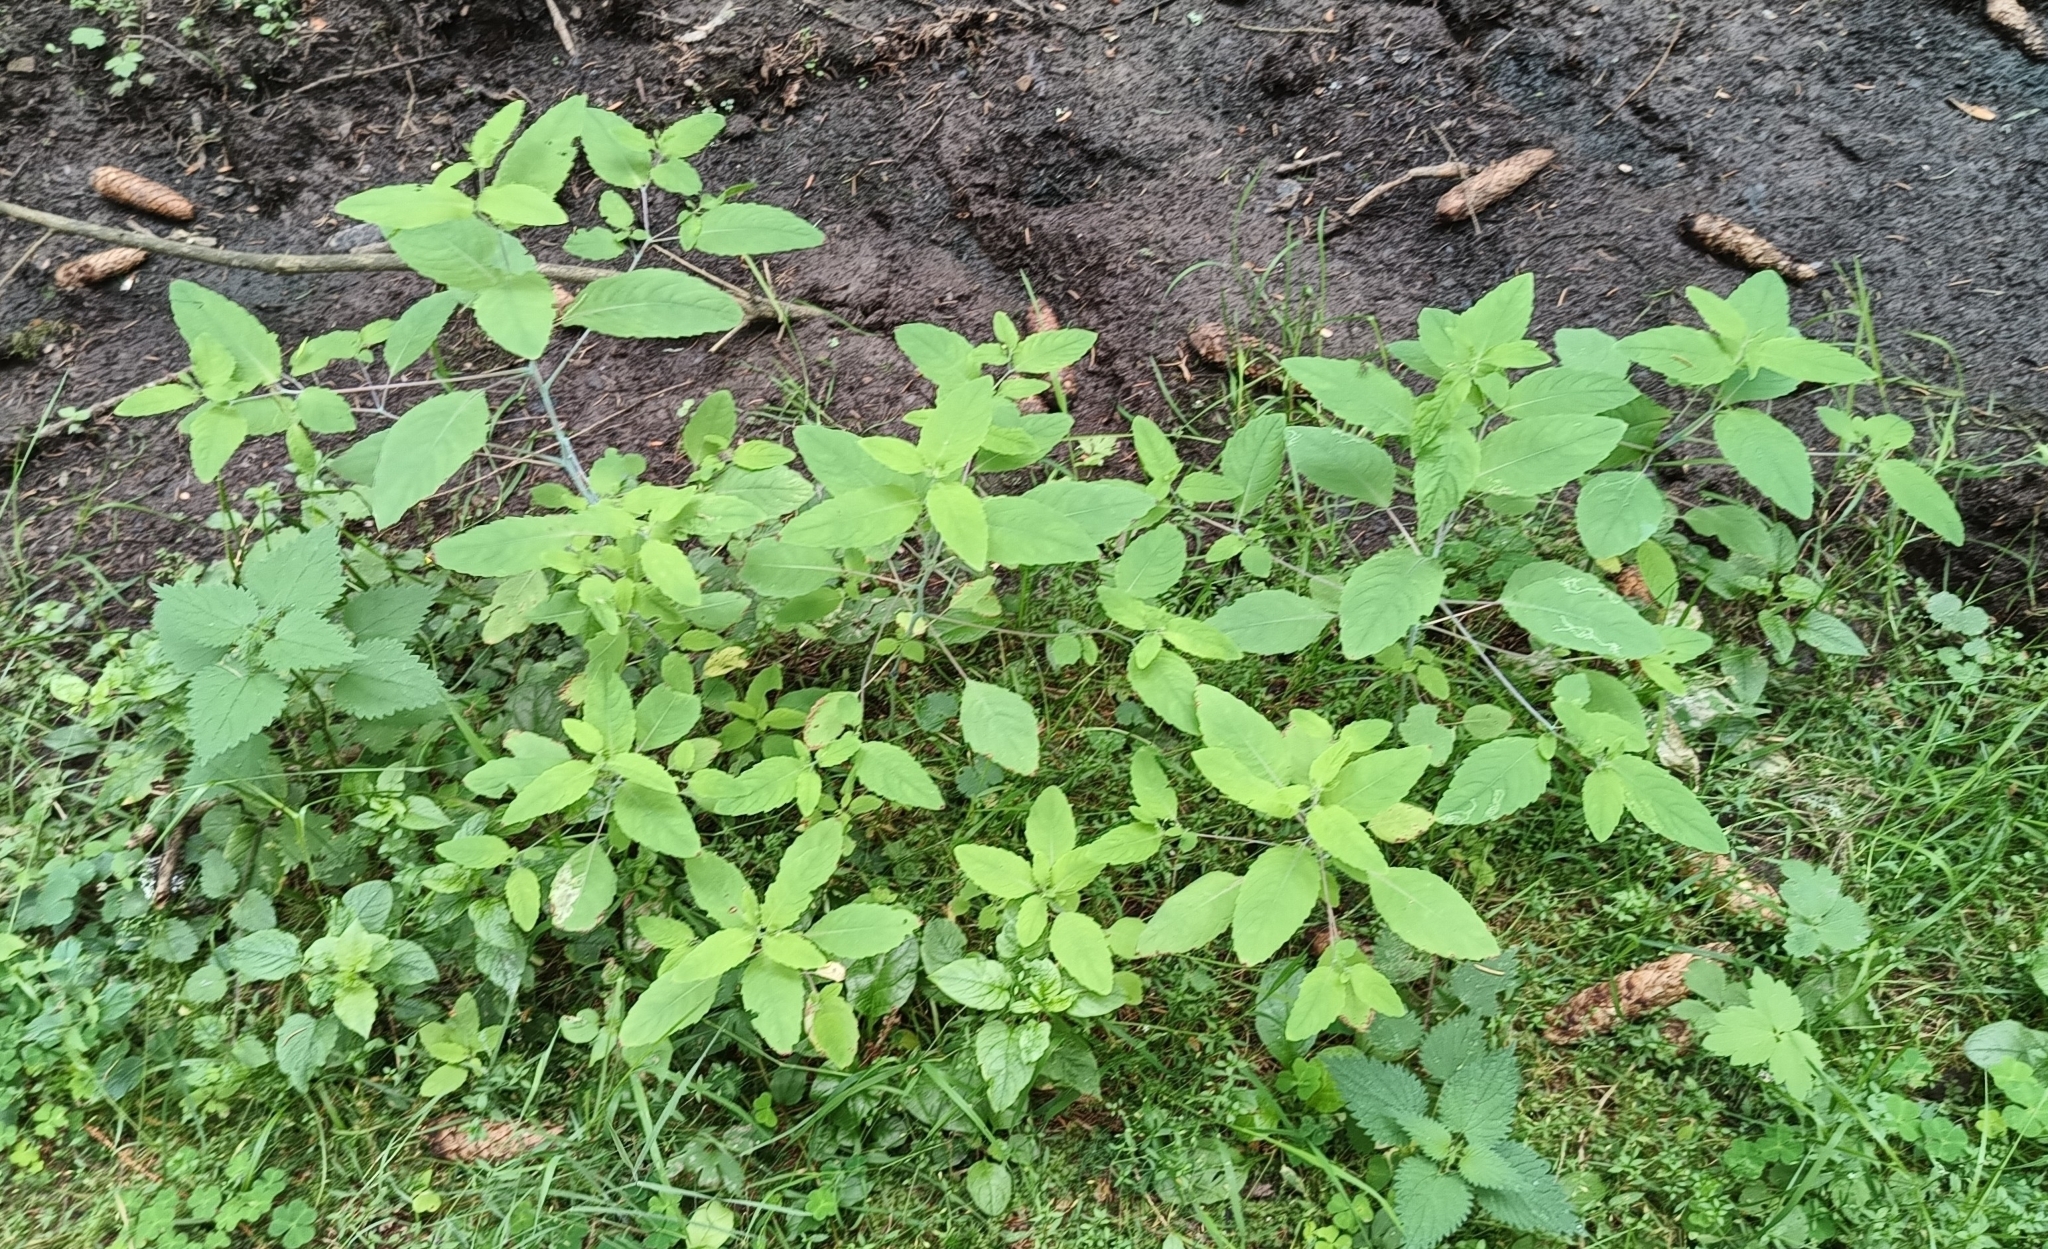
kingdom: Plantae
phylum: Tracheophyta
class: Magnoliopsida
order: Ericales
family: Balsaminaceae
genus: Impatiens
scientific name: Impatiens noli-tangere
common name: Touch-me-not balsam
